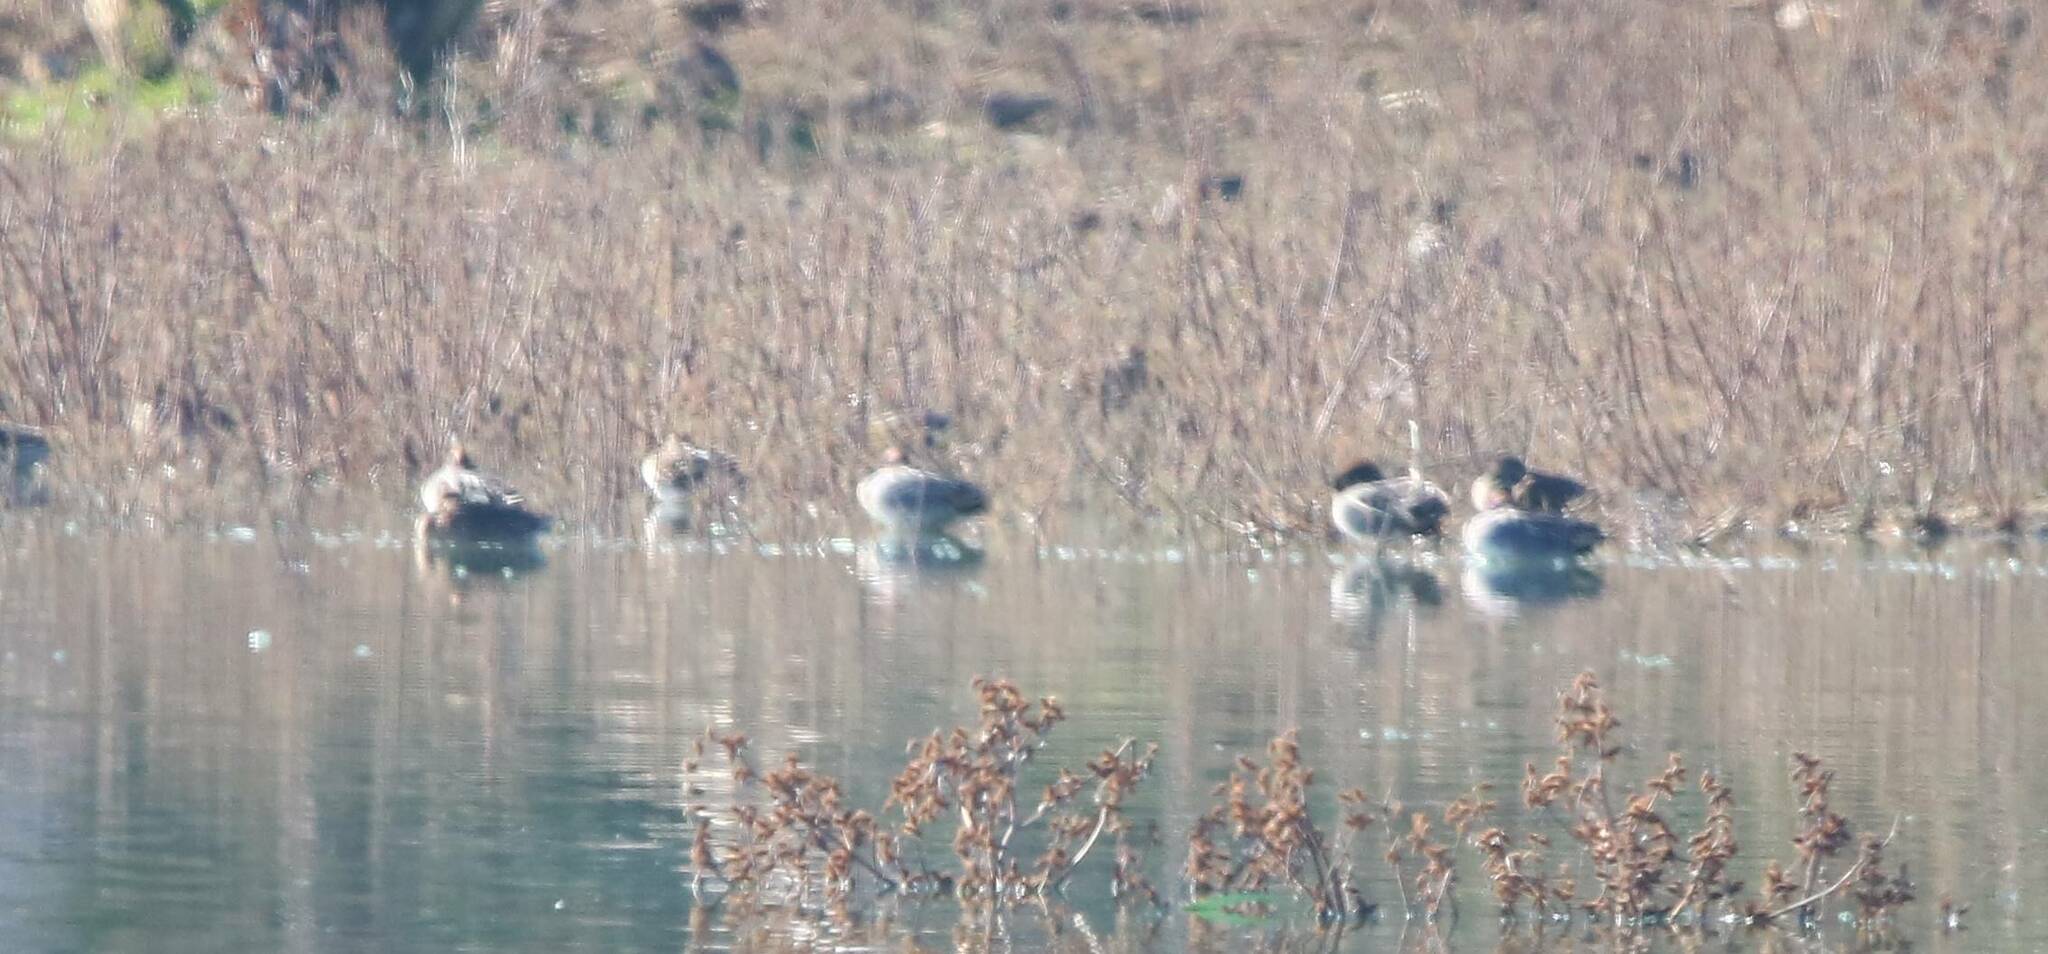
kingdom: Animalia
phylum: Chordata
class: Aves
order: Anseriformes
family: Anatidae
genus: Anas
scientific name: Anas crecca
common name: Eurasian teal
